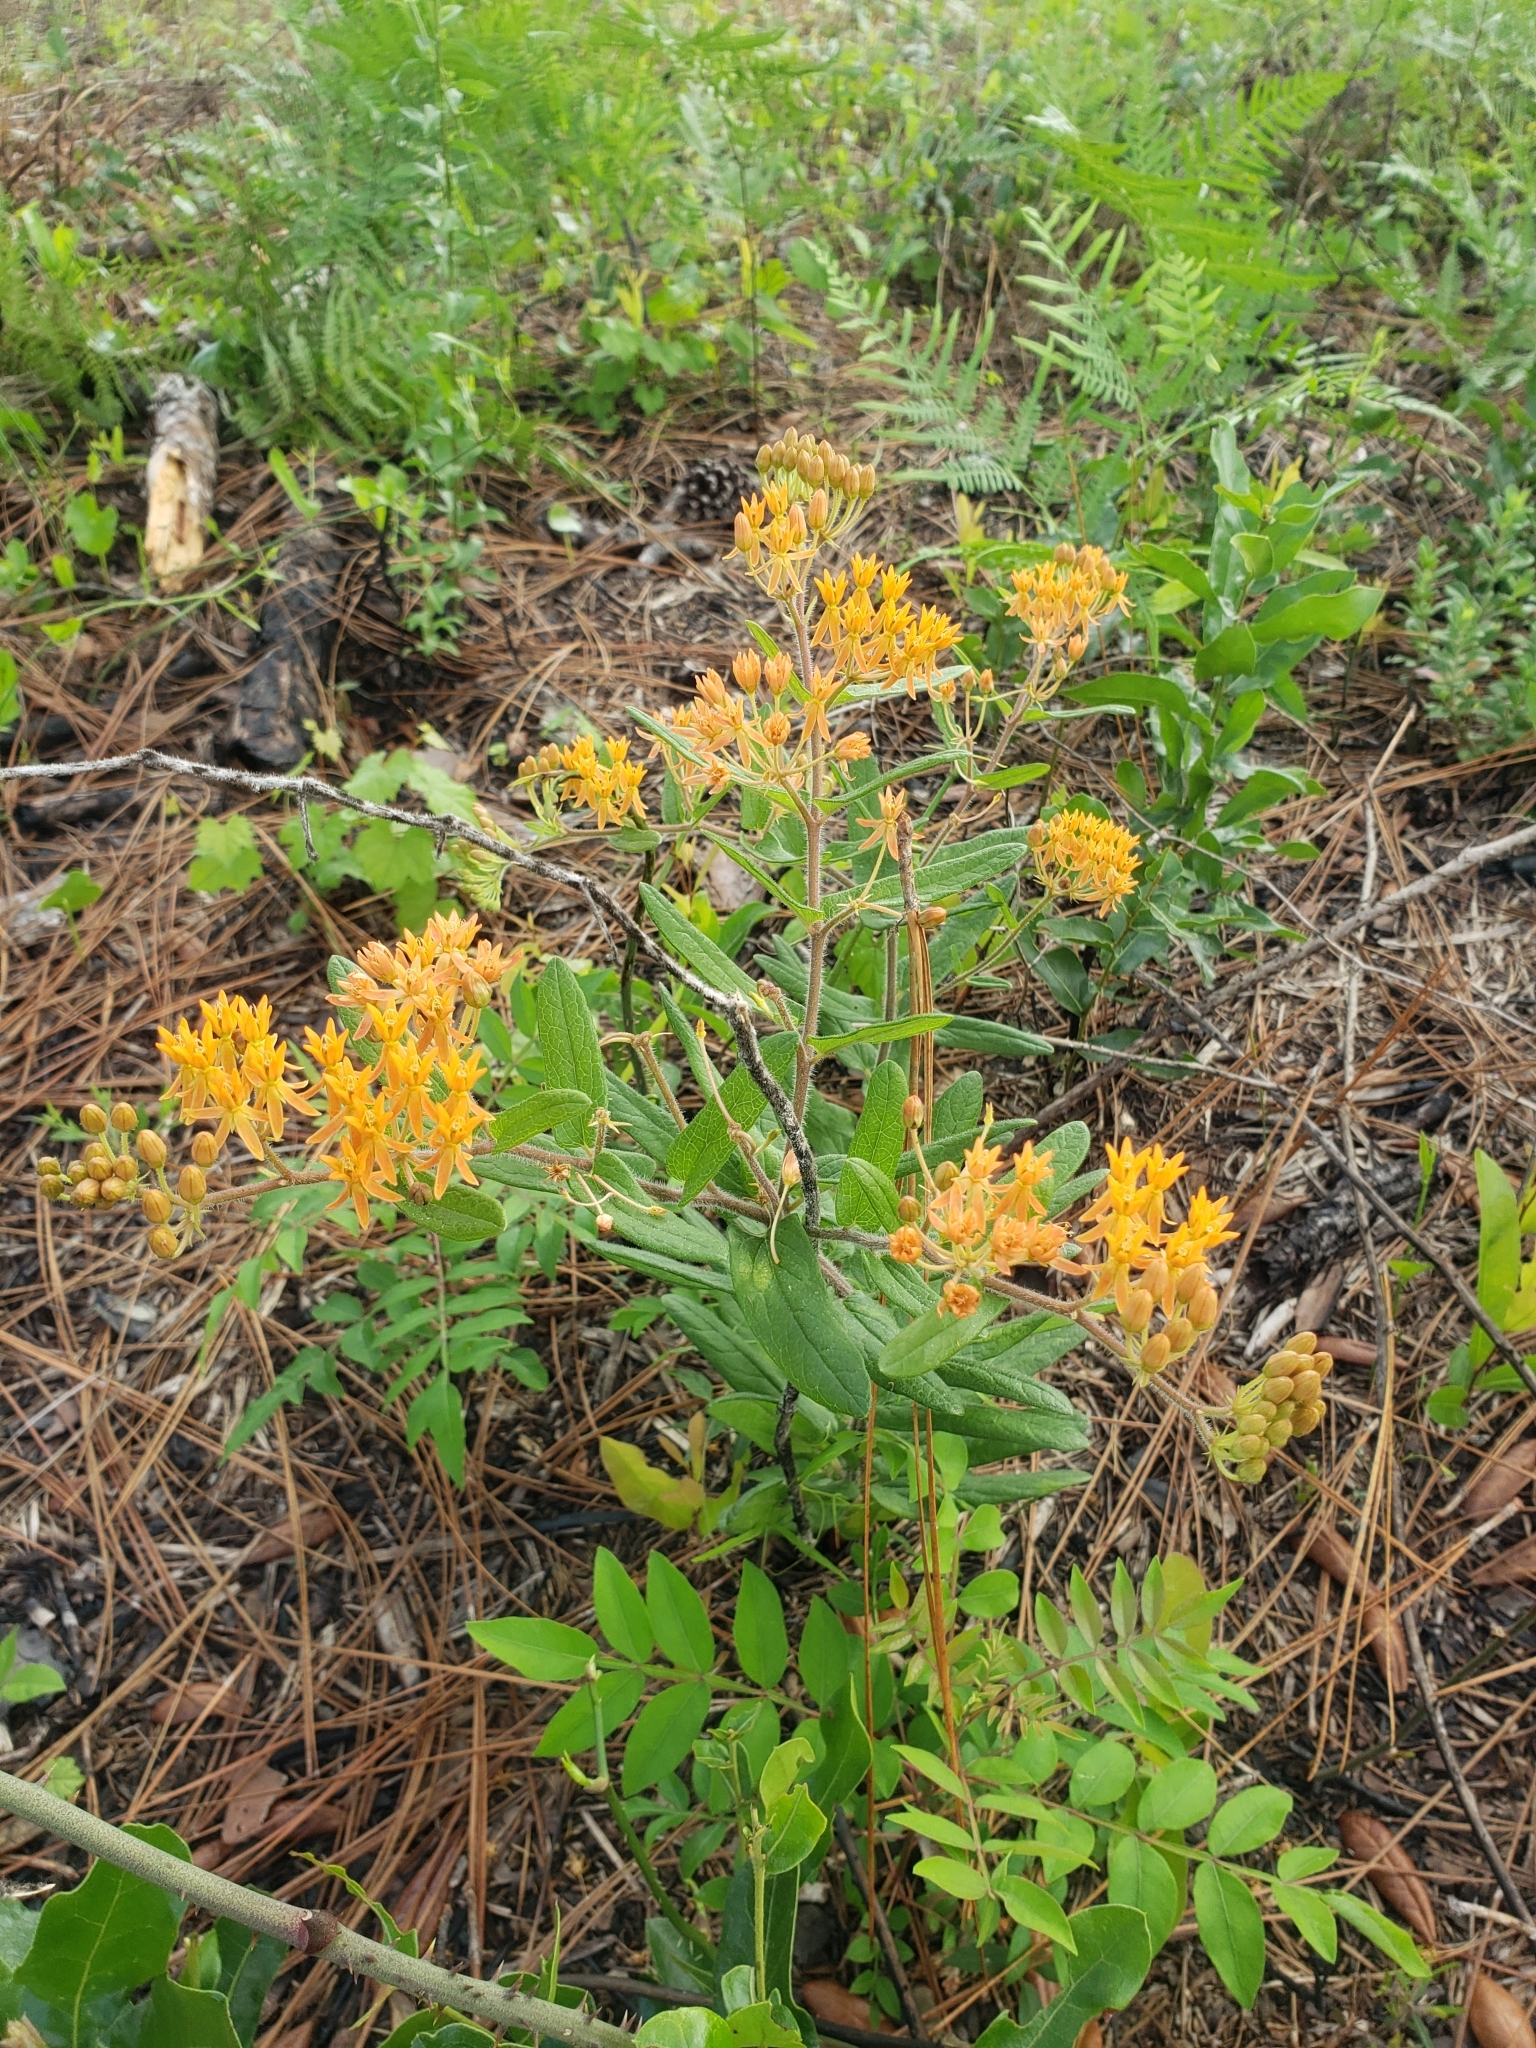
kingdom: Plantae
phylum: Tracheophyta
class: Magnoliopsida
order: Gentianales
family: Apocynaceae
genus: Asclepias
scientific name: Asclepias tuberosa
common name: Butterfly milkweed
